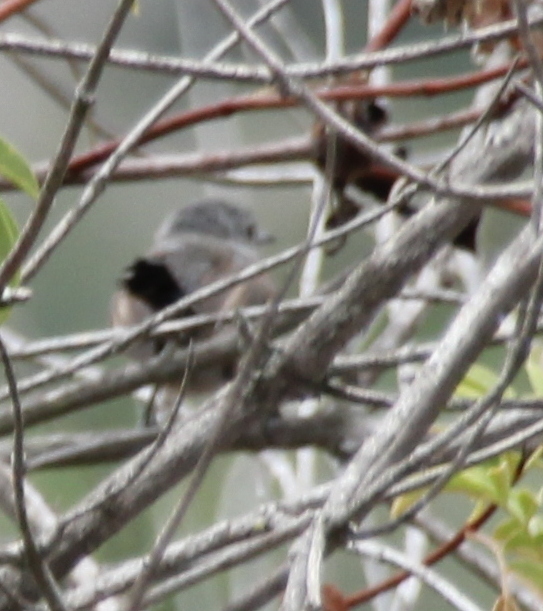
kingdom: Animalia
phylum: Chordata
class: Aves
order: Passeriformes
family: Polioptilidae
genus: Polioptila
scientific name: Polioptila californica
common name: California gnatcatcher
